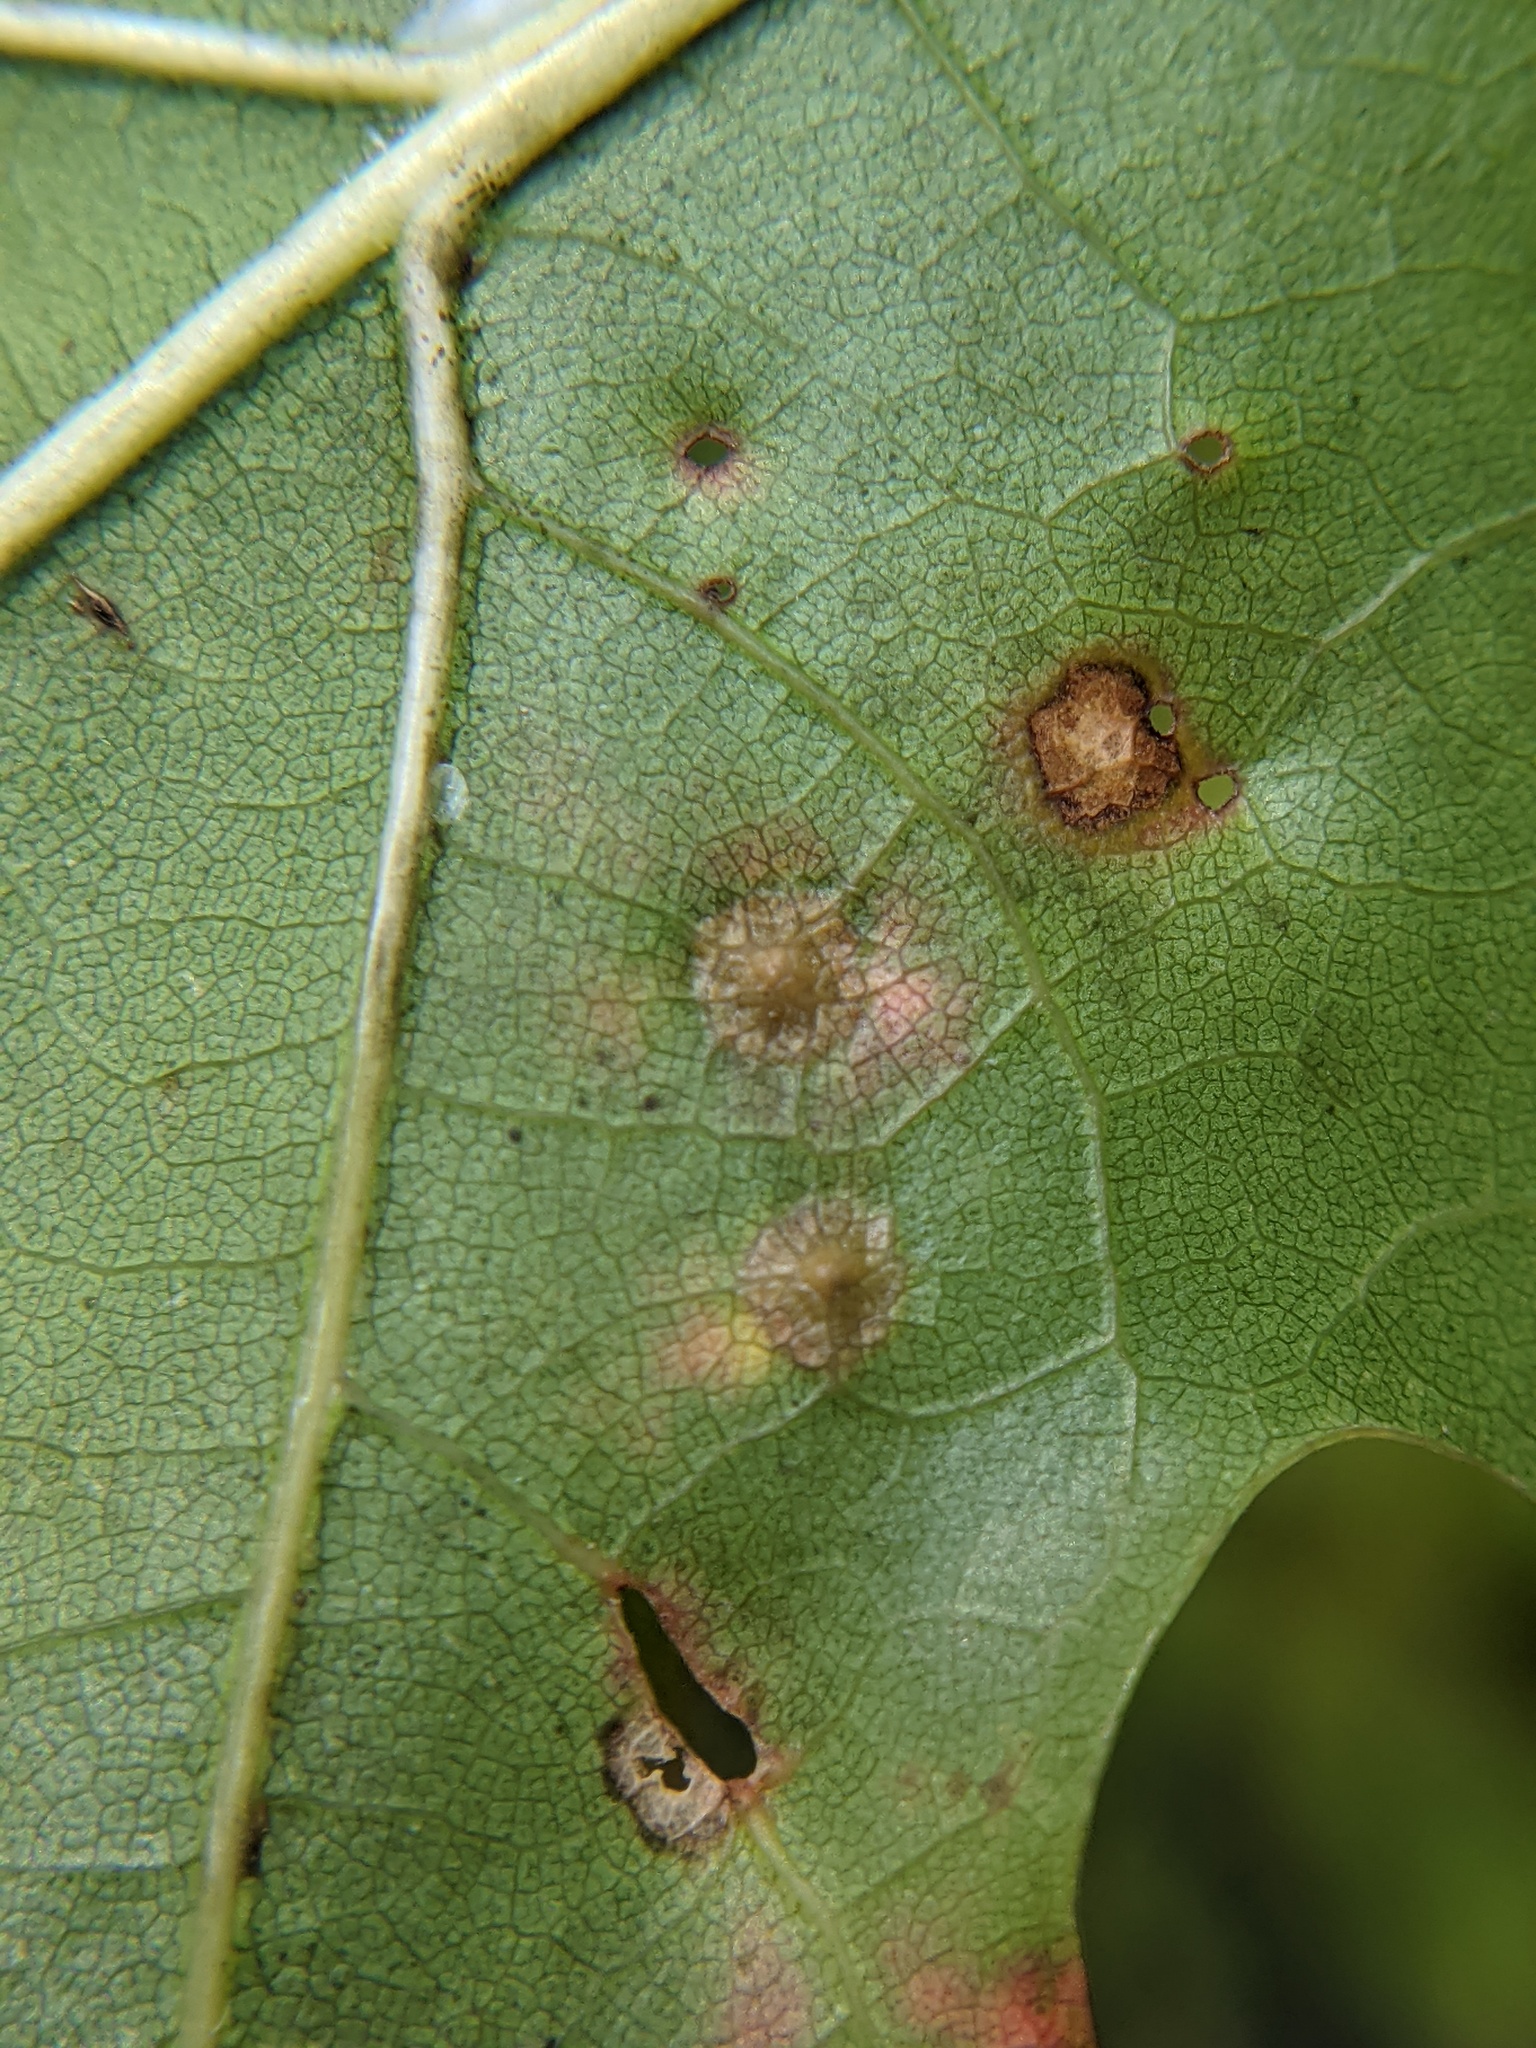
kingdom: Animalia
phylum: Arthropoda
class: Insecta
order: Diptera
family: Cecidomyiidae
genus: Polystepha
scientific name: Polystepha pilulae
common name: Oak leaf gall midge
